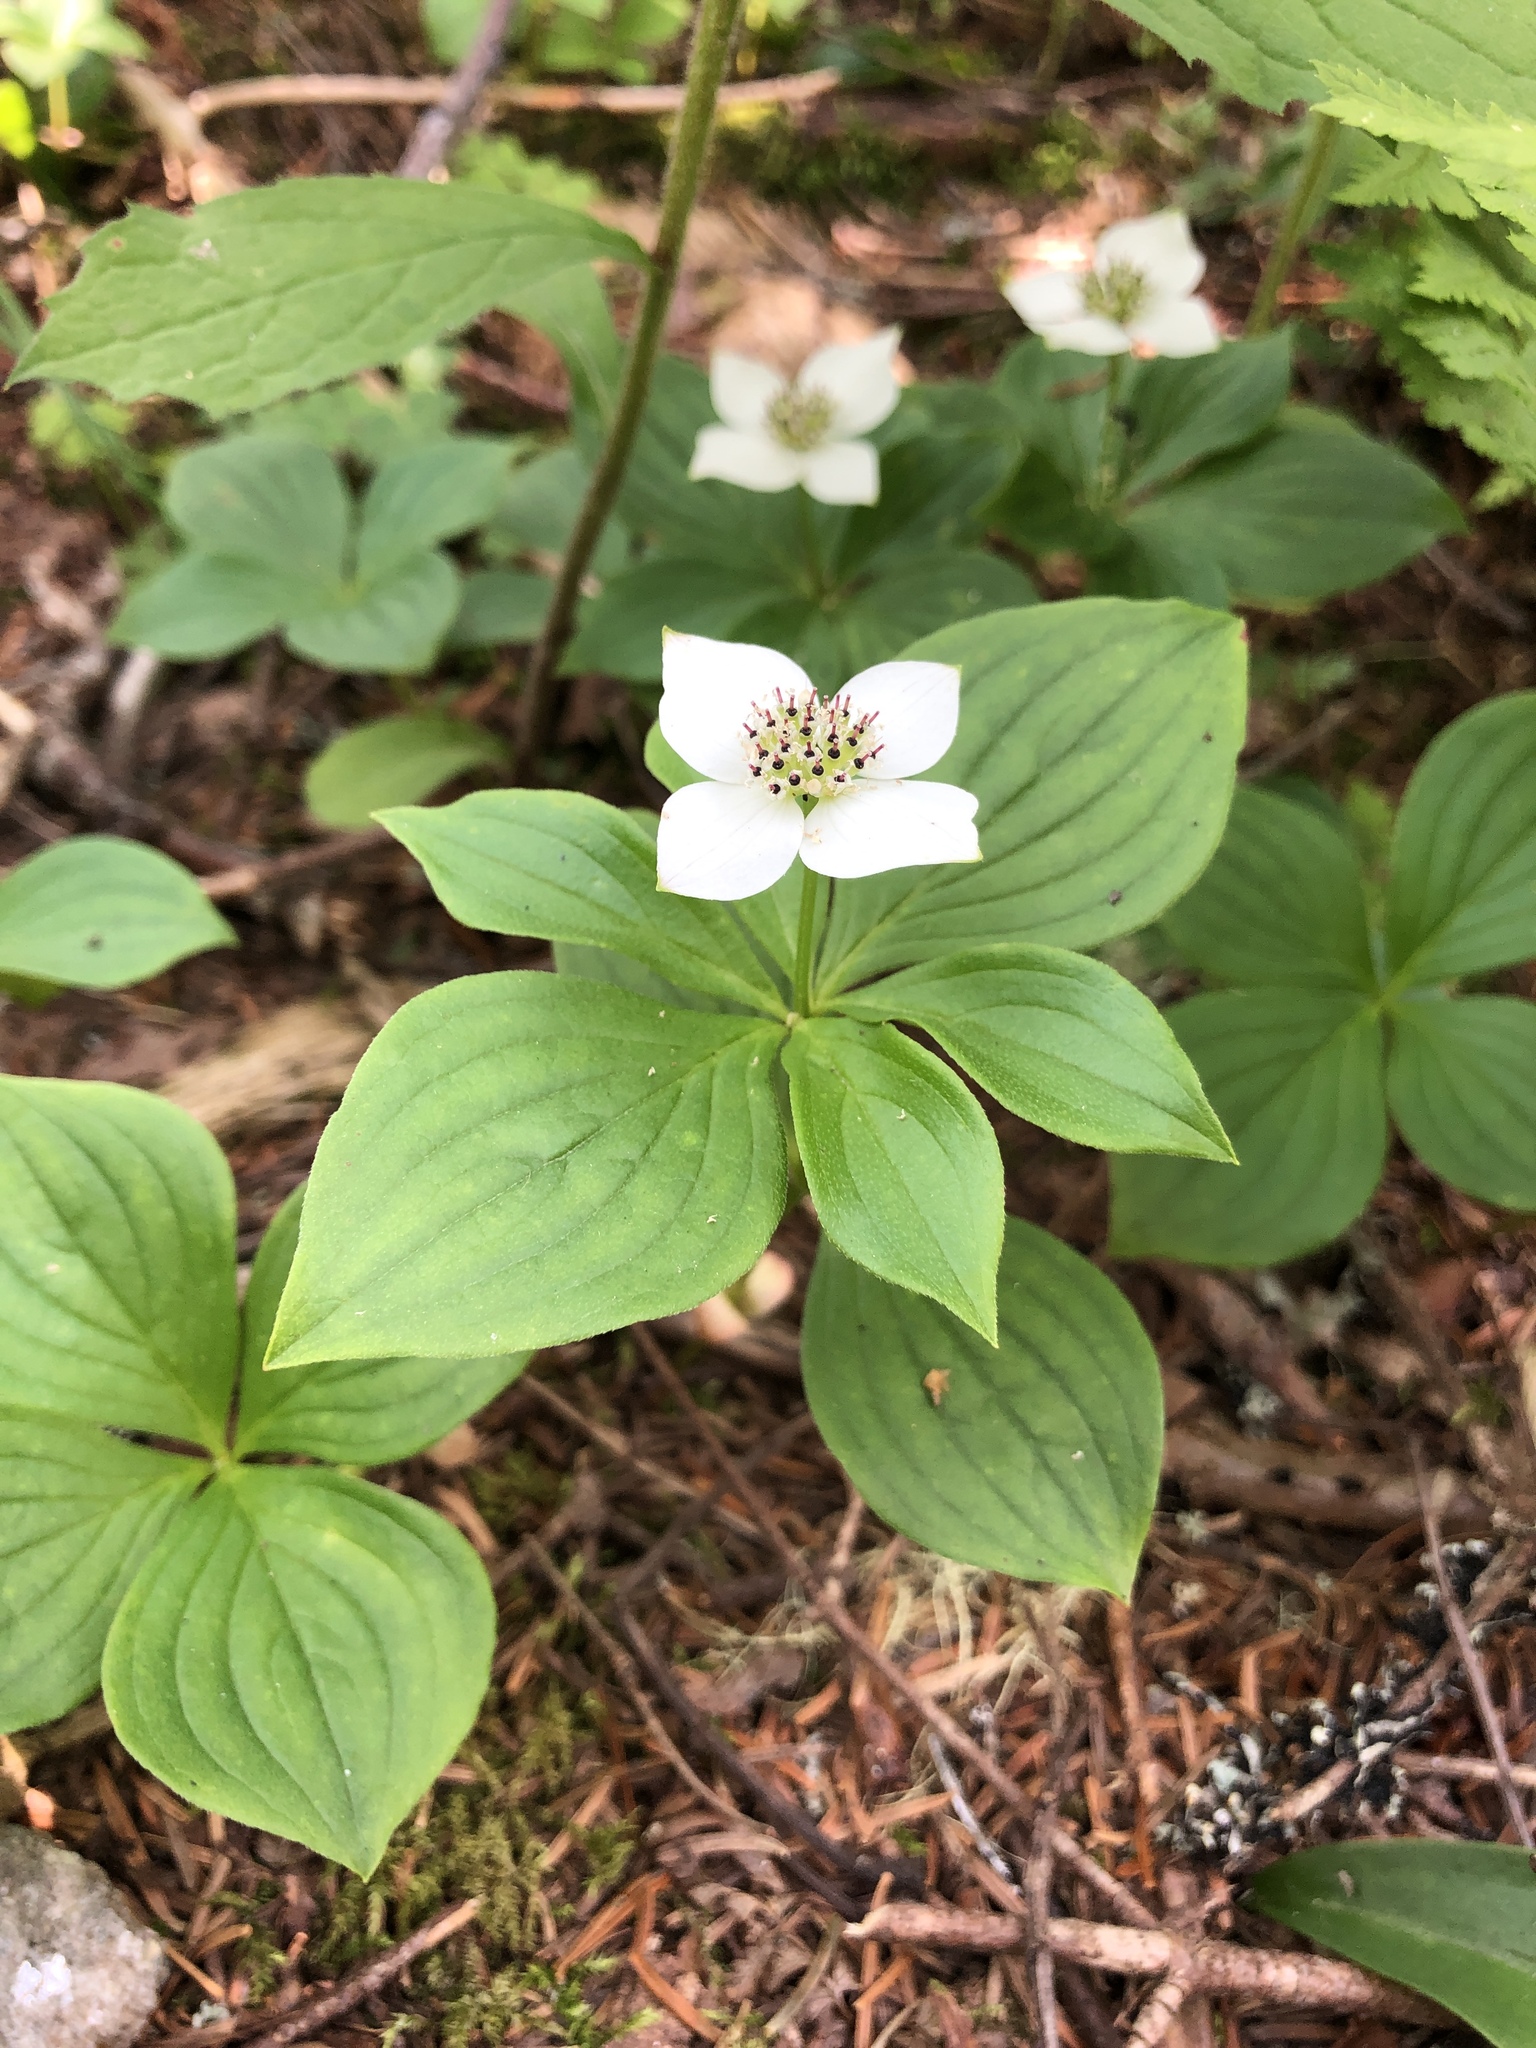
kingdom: Plantae
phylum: Tracheophyta
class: Magnoliopsida
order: Cornales
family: Cornaceae
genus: Cornus
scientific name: Cornus canadensis
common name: Creeping dogwood
